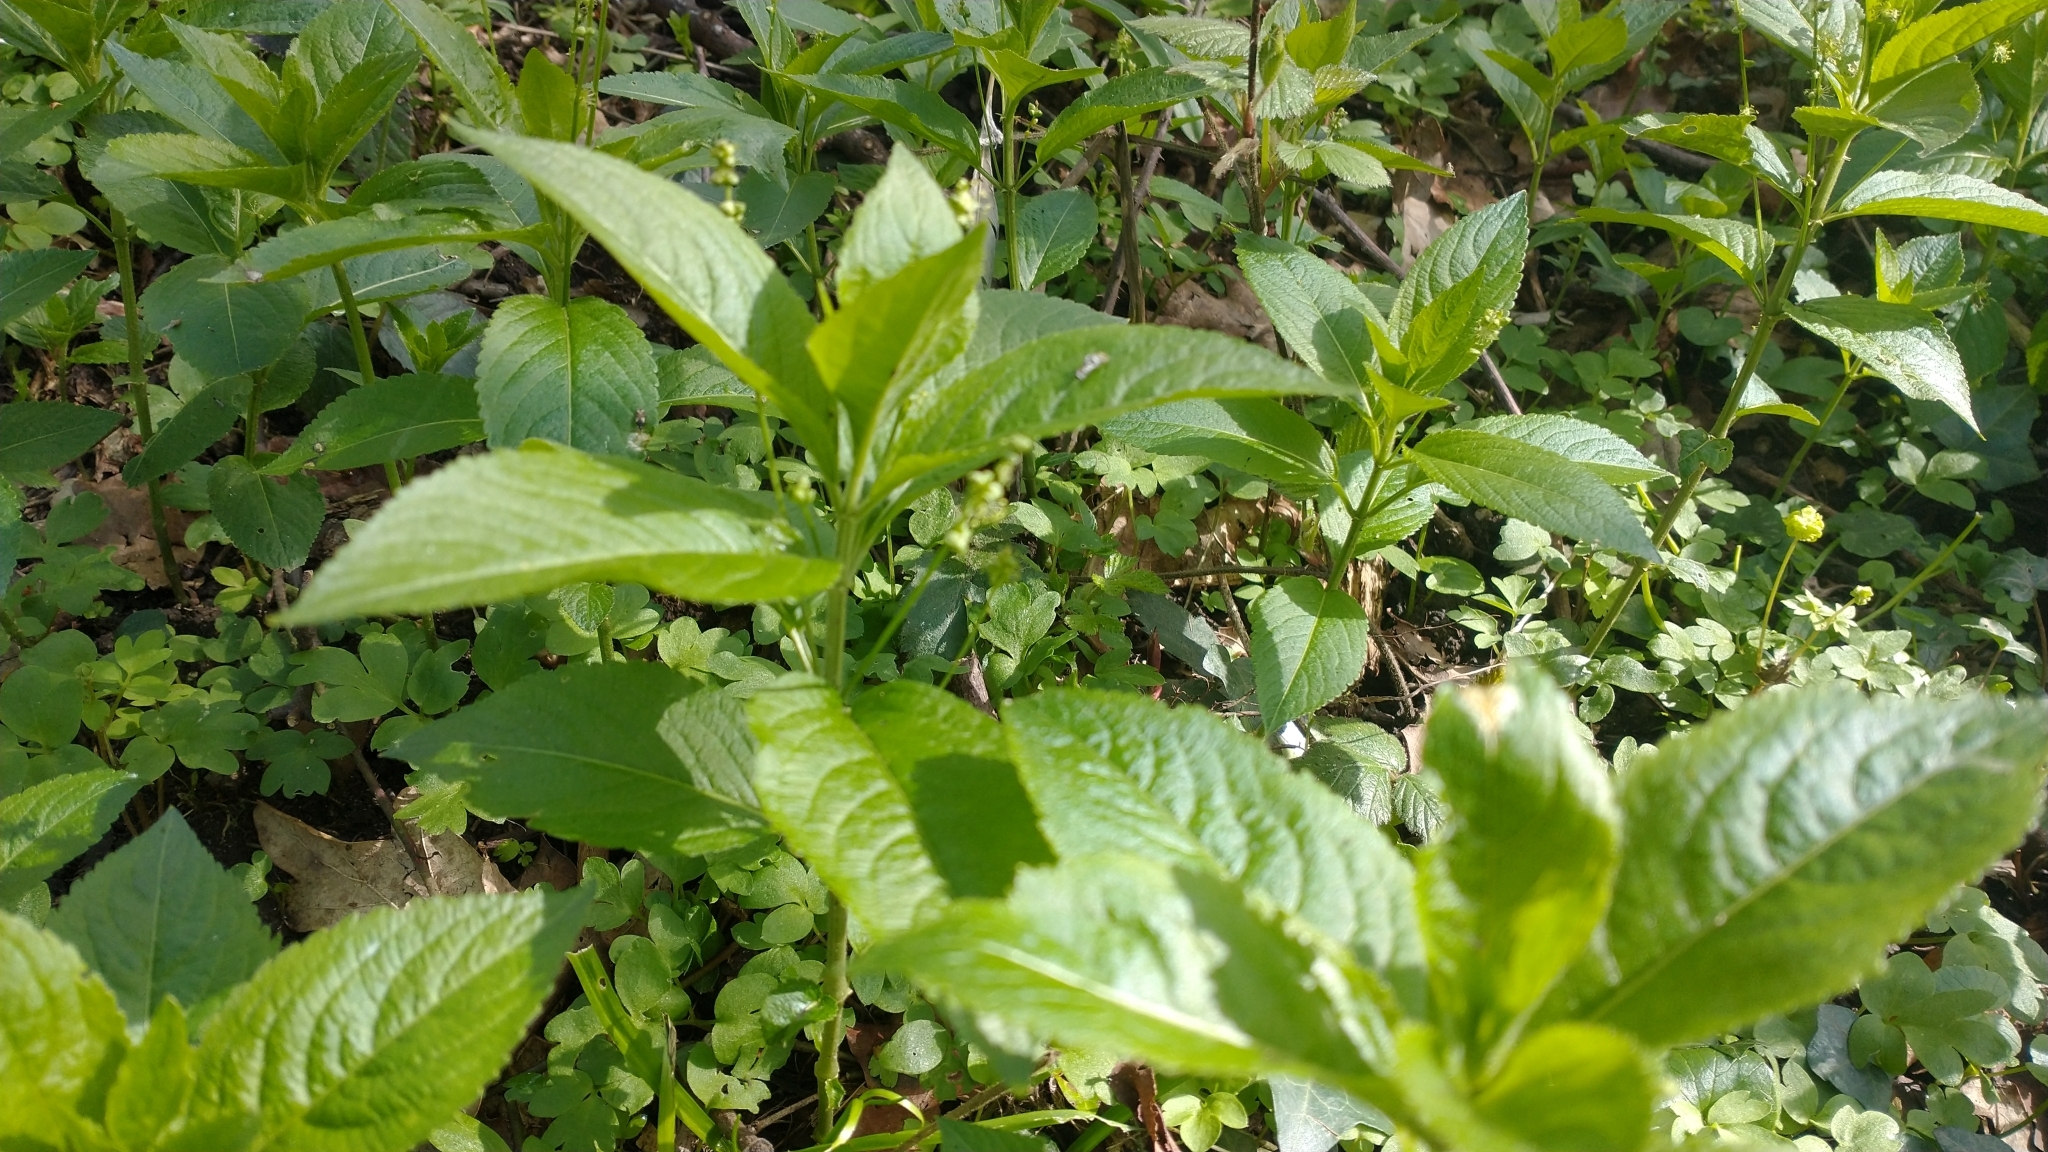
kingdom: Plantae
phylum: Tracheophyta
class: Magnoliopsida
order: Malpighiales
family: Euphorbiaceae
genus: Mercurialis
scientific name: Mercurialis perennis
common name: Dog mercury
